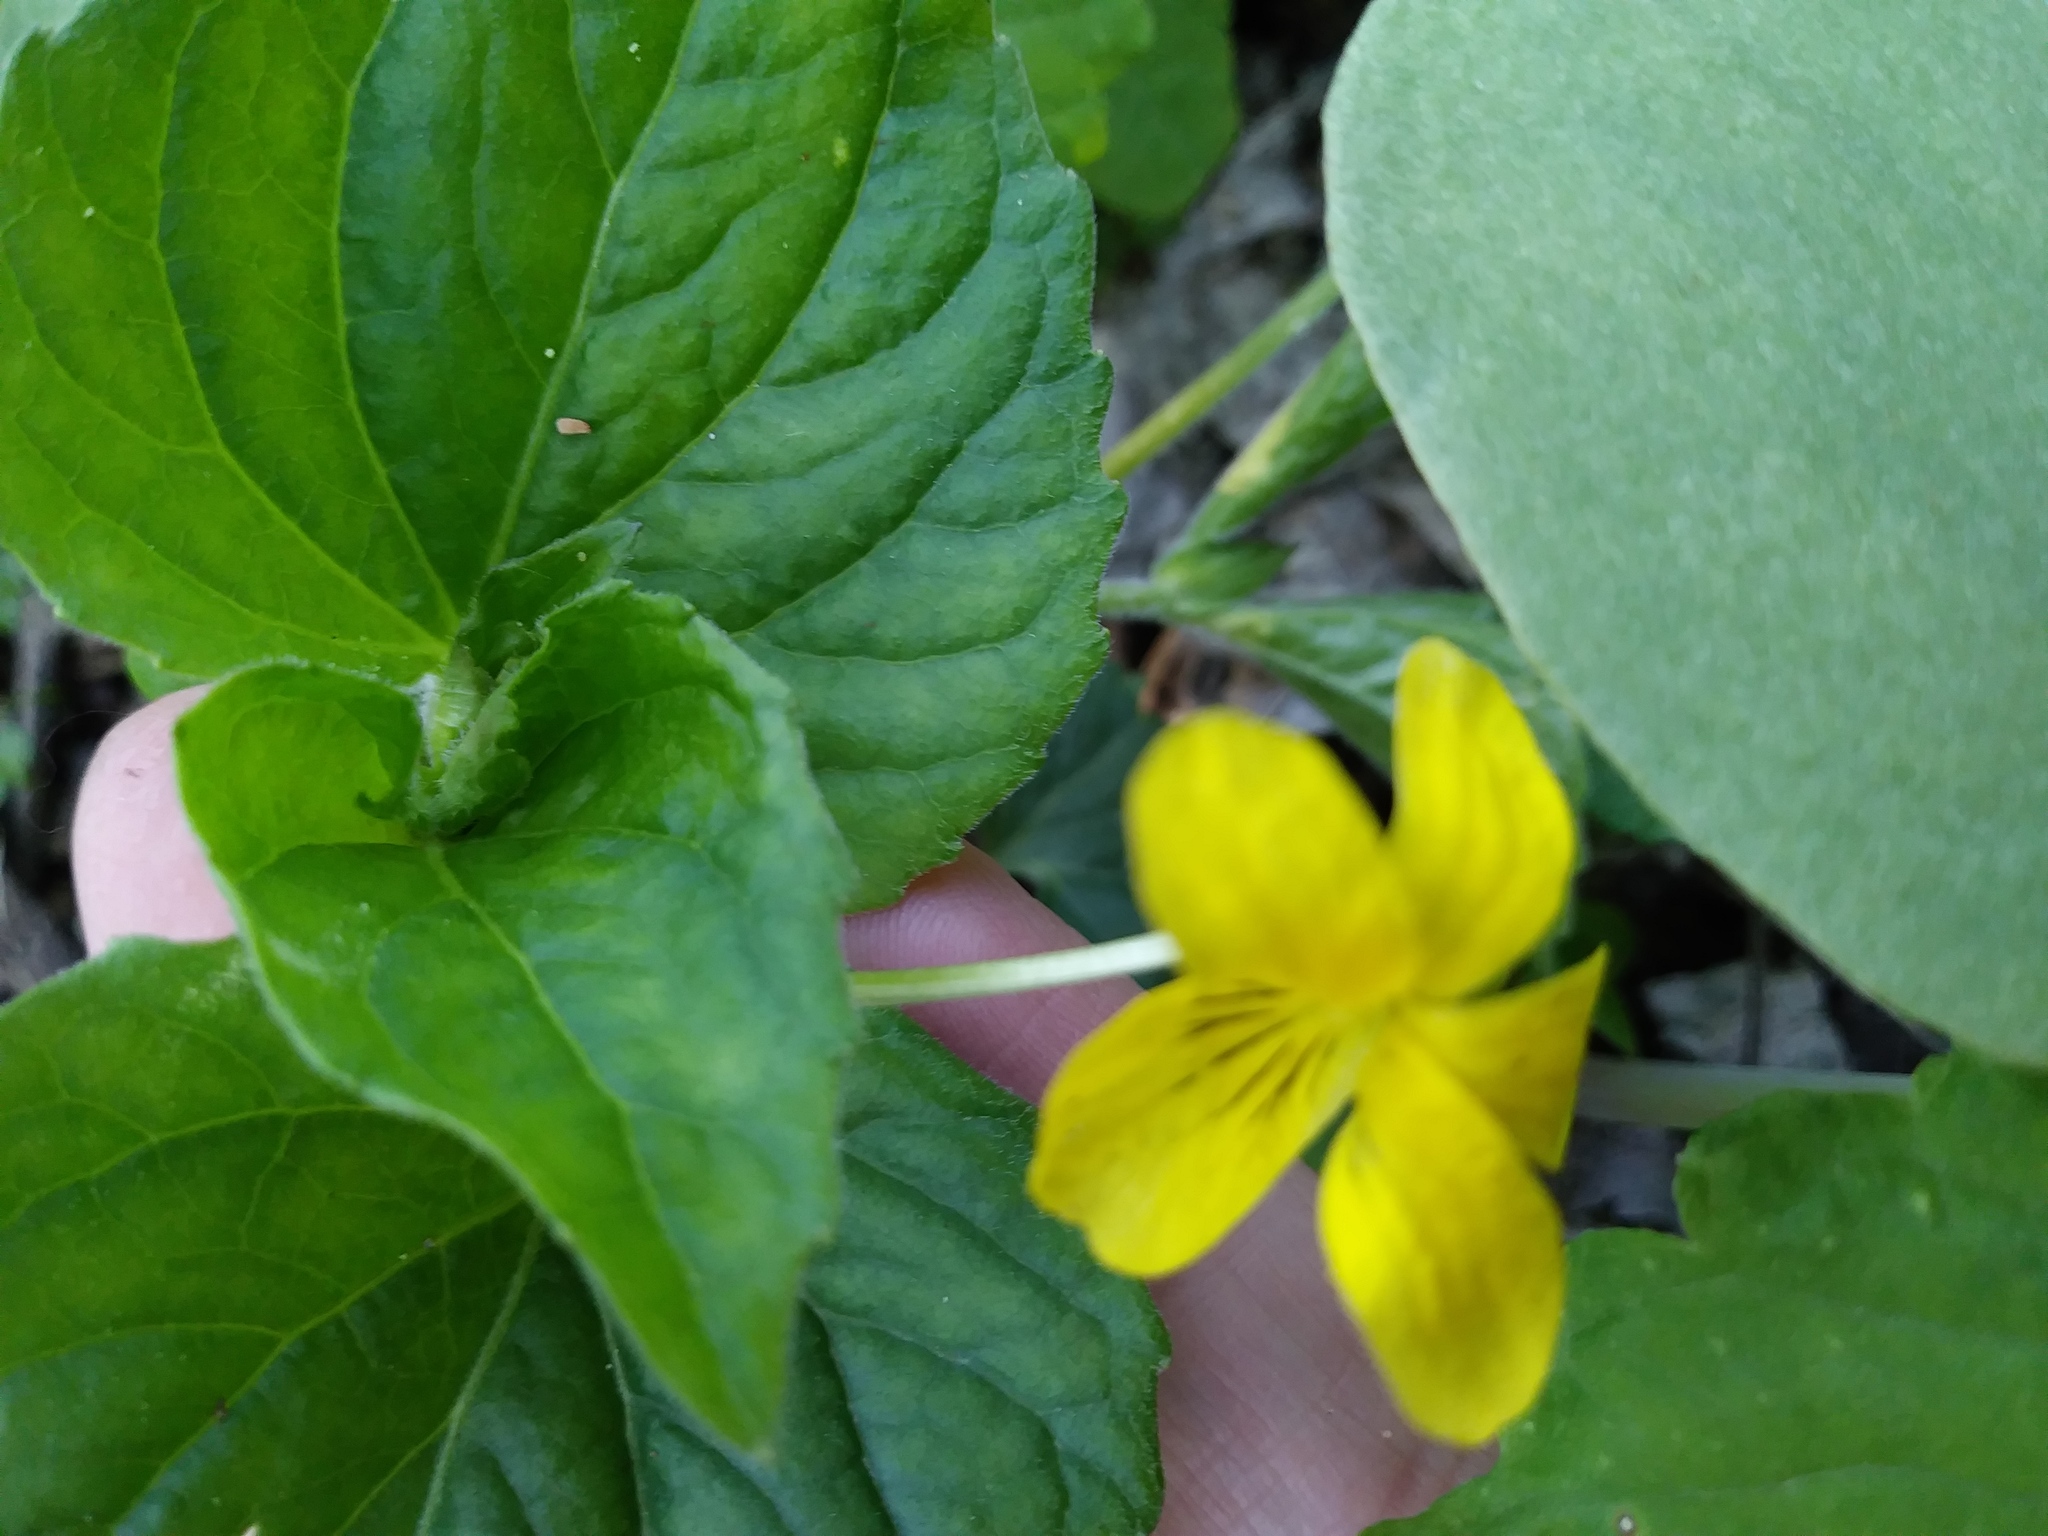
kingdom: Plantae
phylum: Tracheophyta
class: Magnoliopsida
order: Malpighiales
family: Violaceae
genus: Viola
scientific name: Viola eriocarpa
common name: Smooth yellow violet
